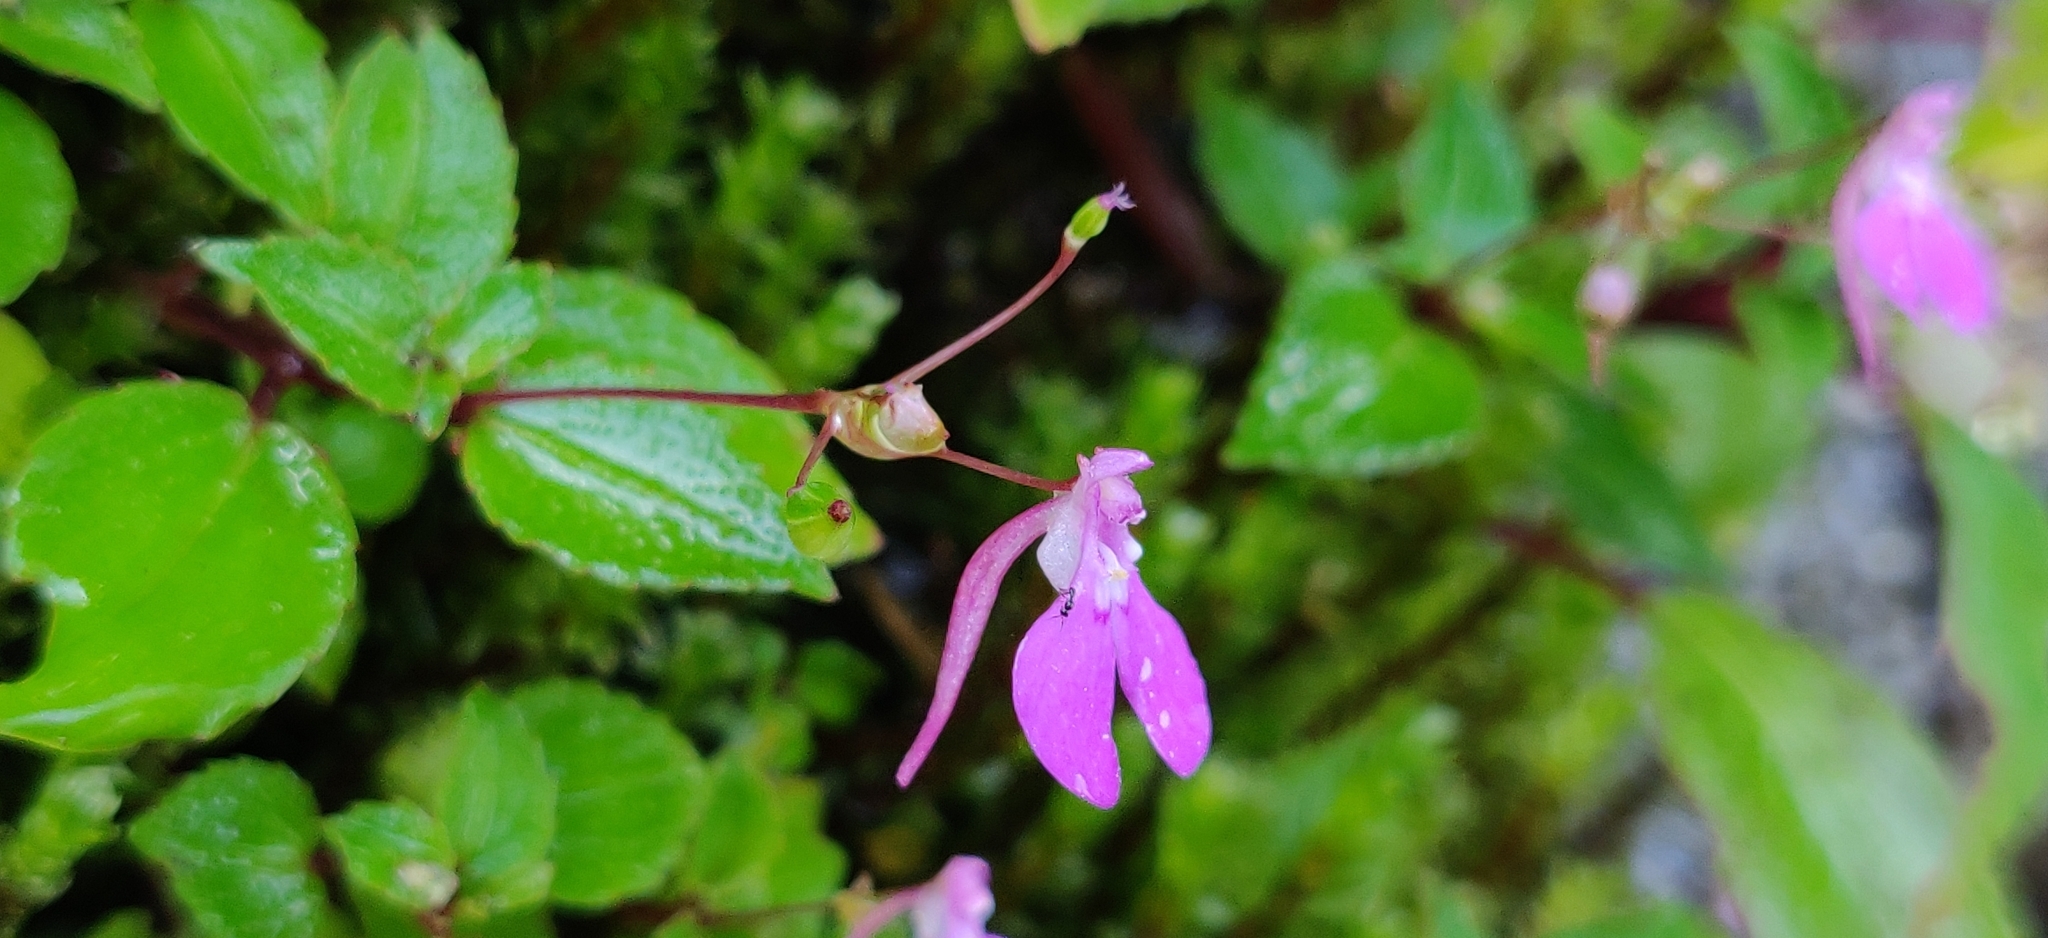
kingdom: Plantae
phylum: Tracheophyta
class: Magnoliopsida
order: Ericales
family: Balsaminaceae
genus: Impatiens
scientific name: Impatiens viscosa
